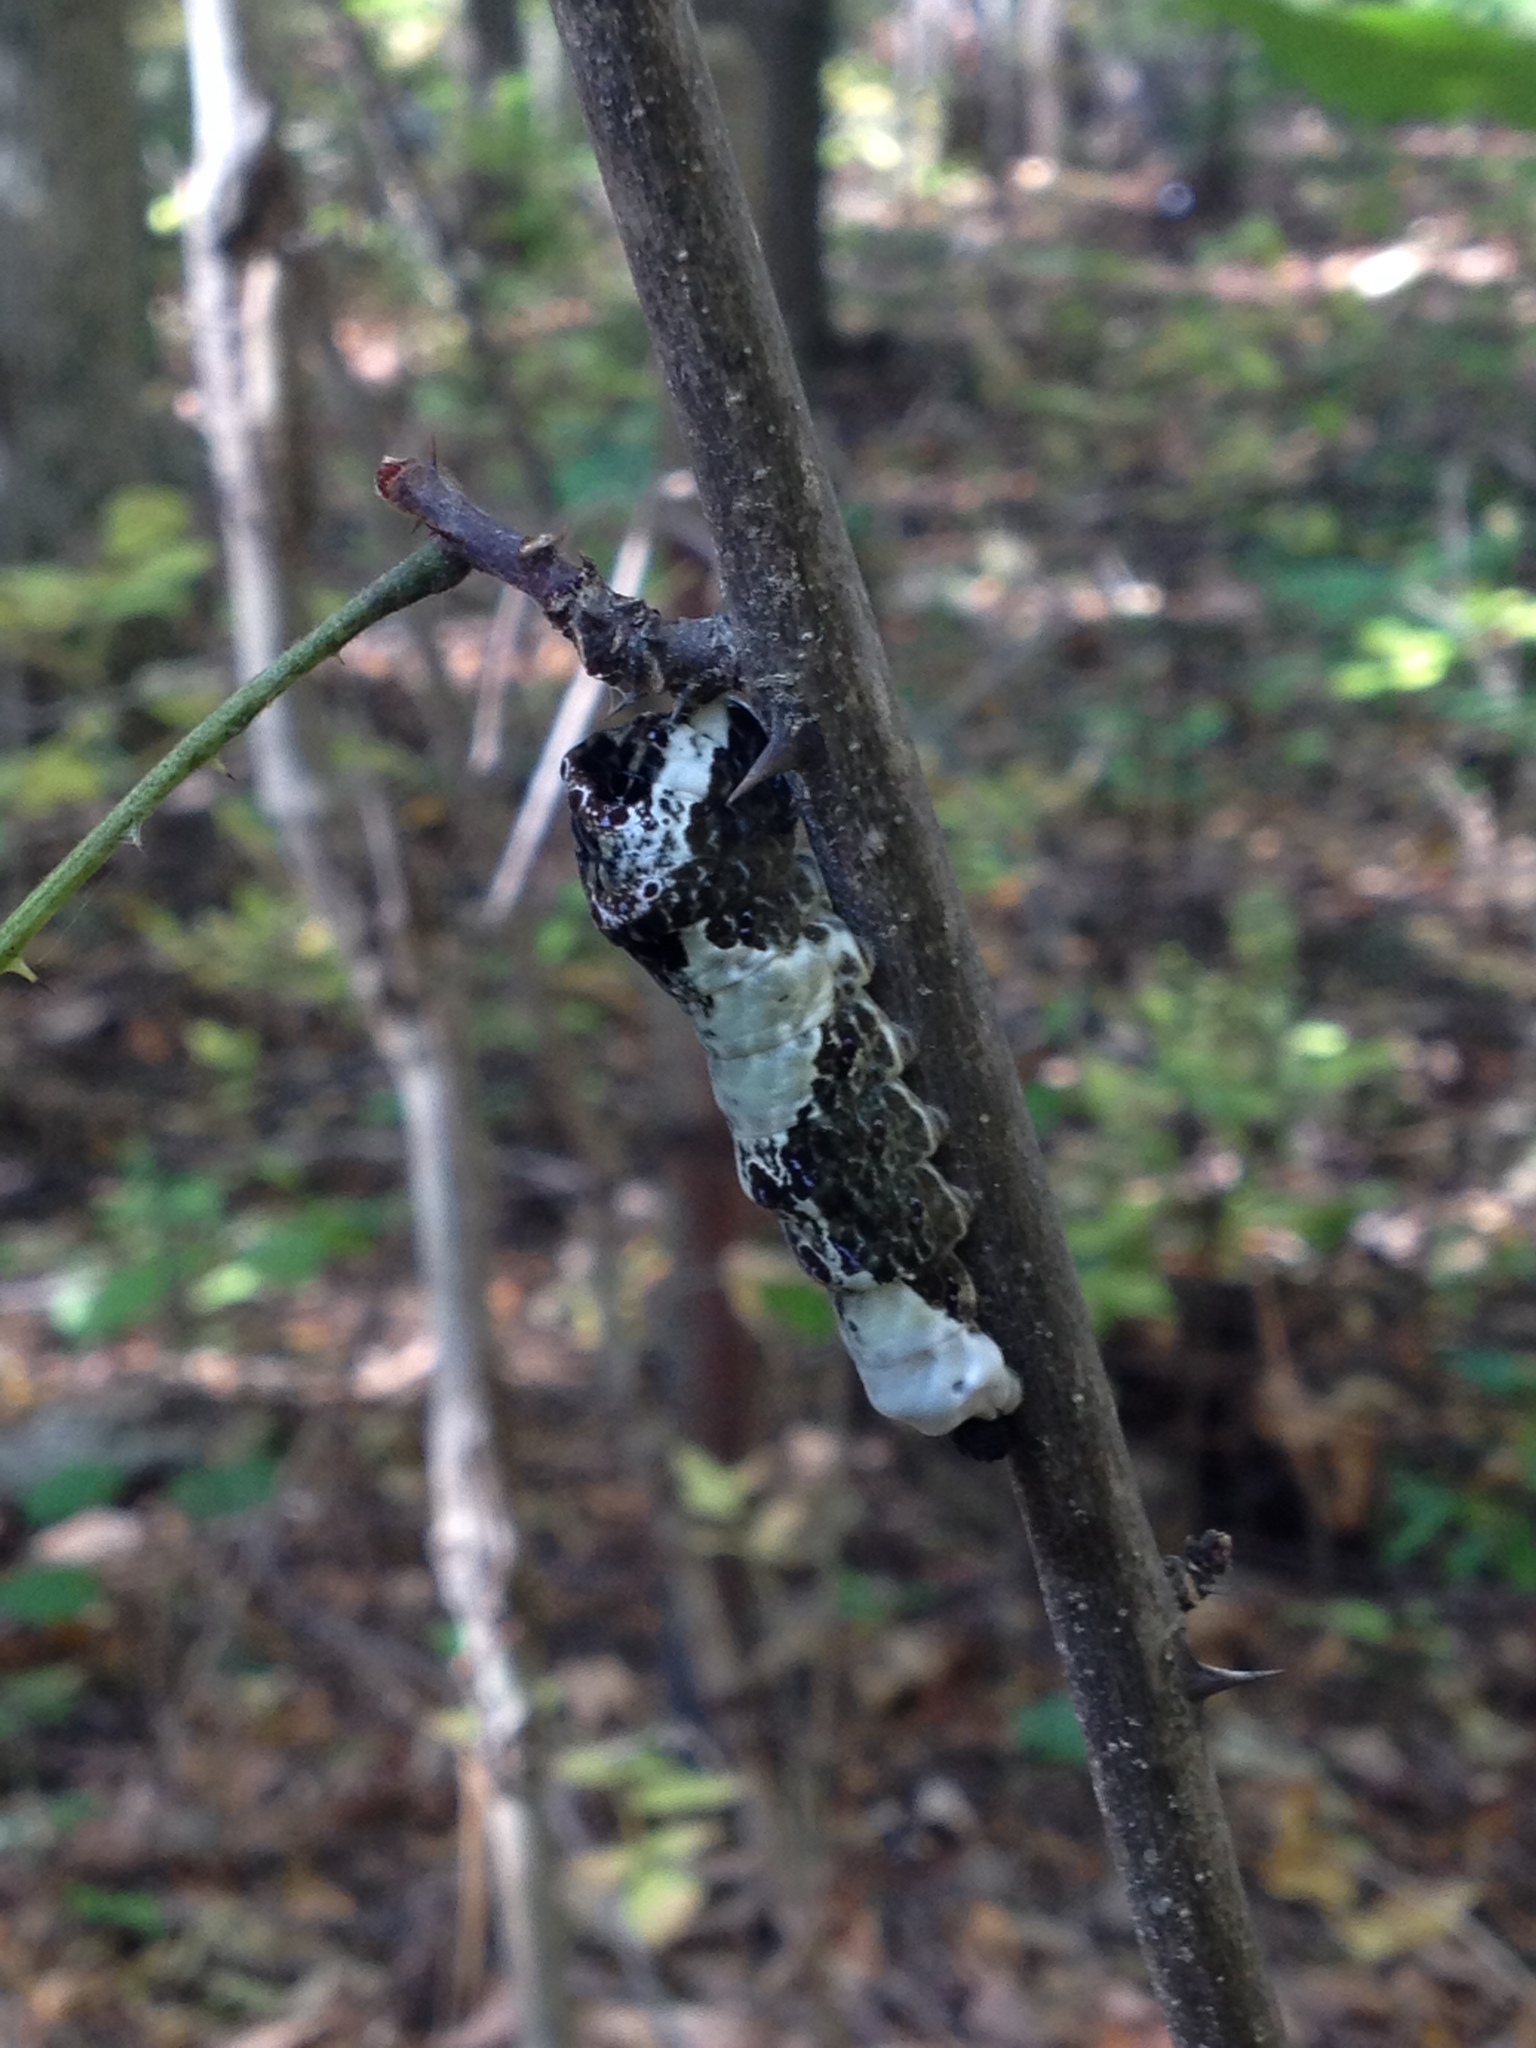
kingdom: Animalia
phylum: Arthropoda
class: Insecta
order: Lepidoptera
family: Papilionidae
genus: Papilio
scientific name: Papilio cresphontes
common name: Giant swallowtail
